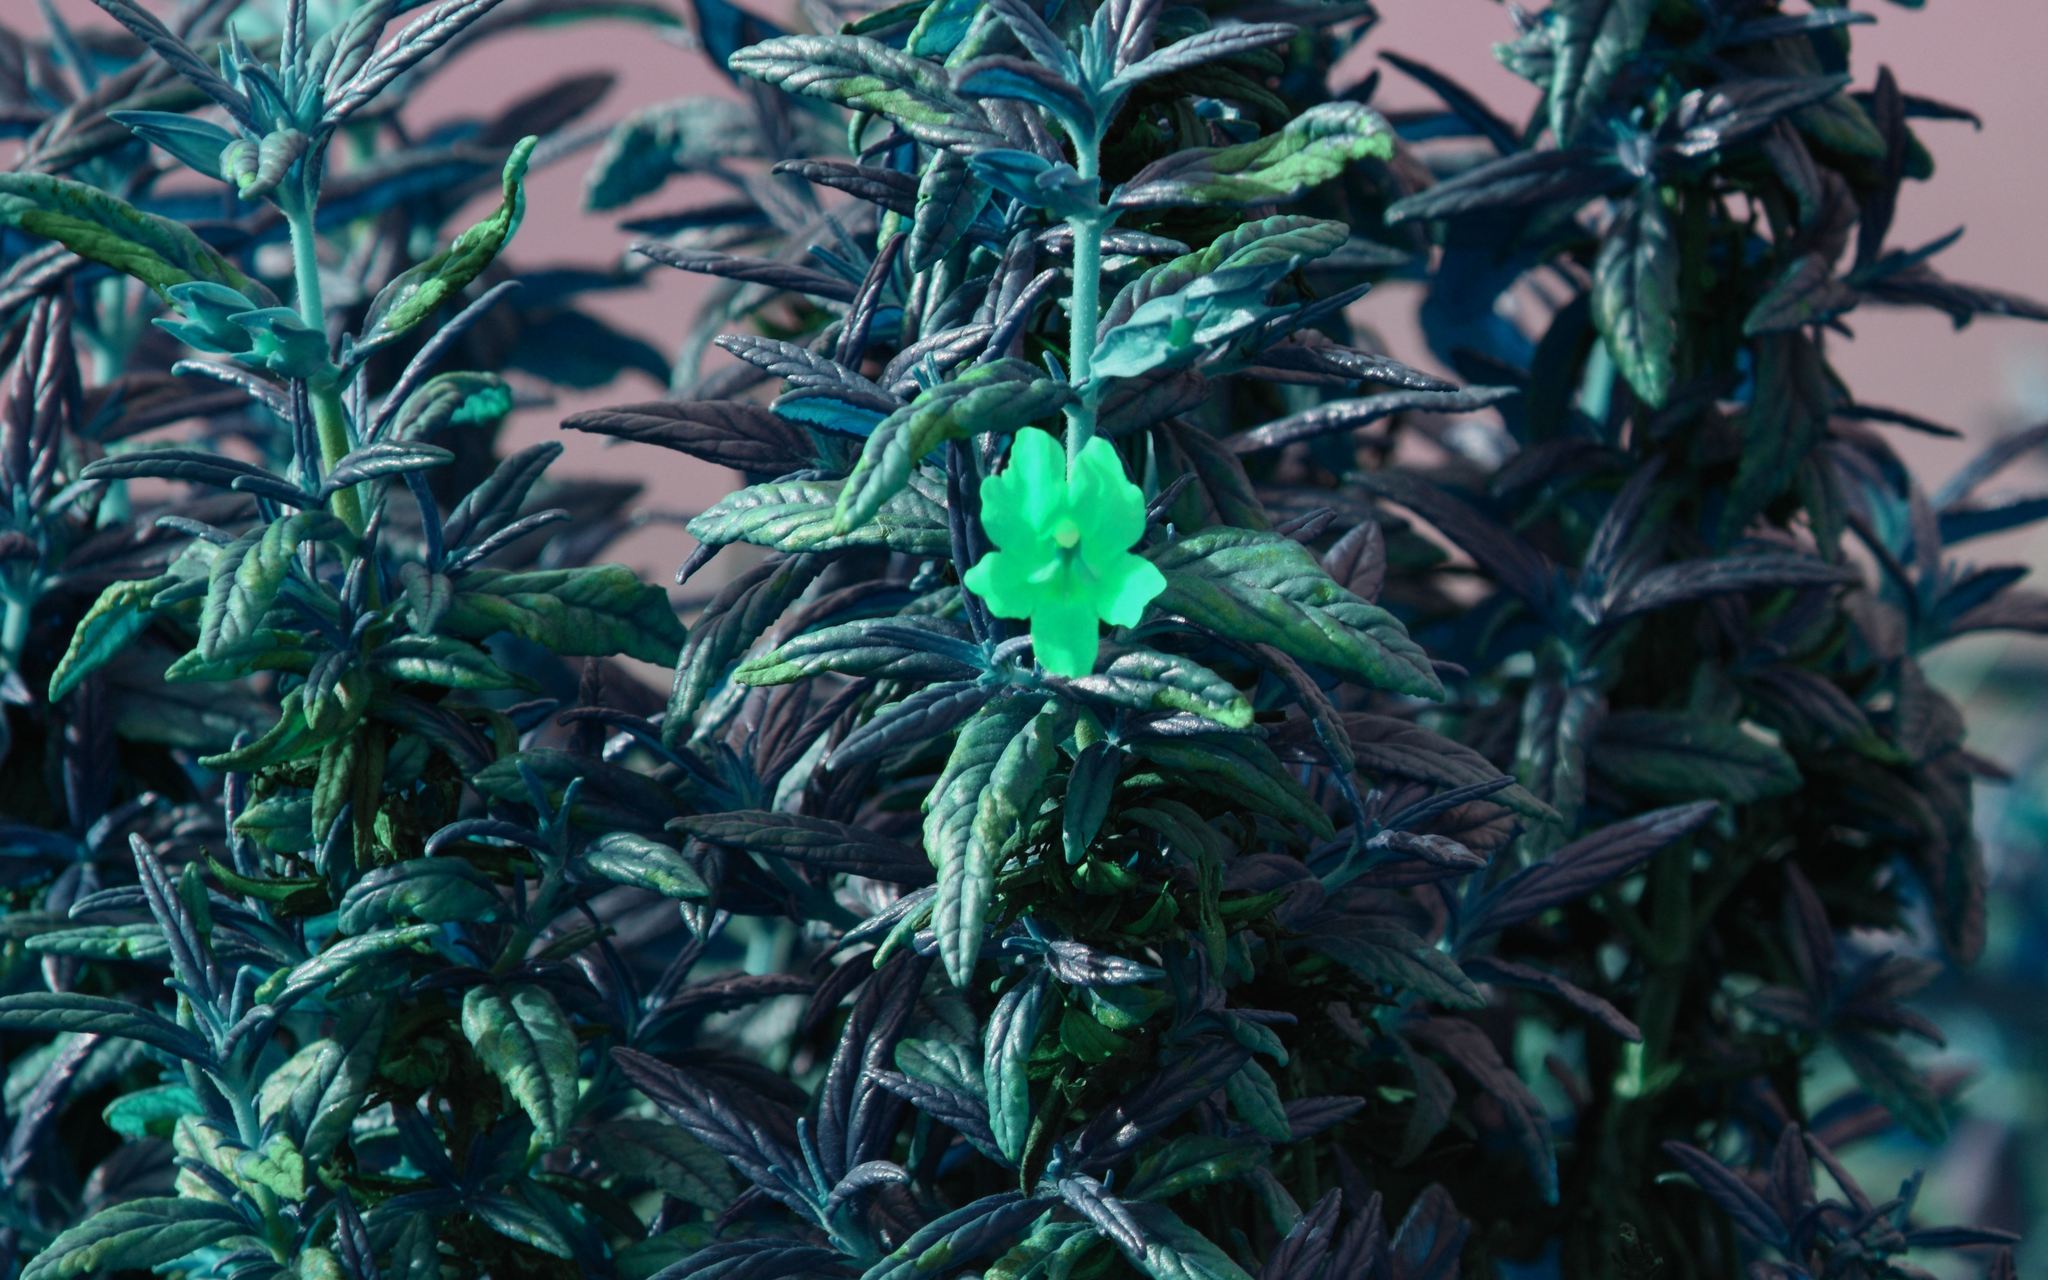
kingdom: Plantae
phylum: Tracheophyta
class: Magnoliopsida
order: Lamiales
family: Phrymaceae
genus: Diplacus
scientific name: Diplacus aurantiacus
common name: Bush monkey-flower
